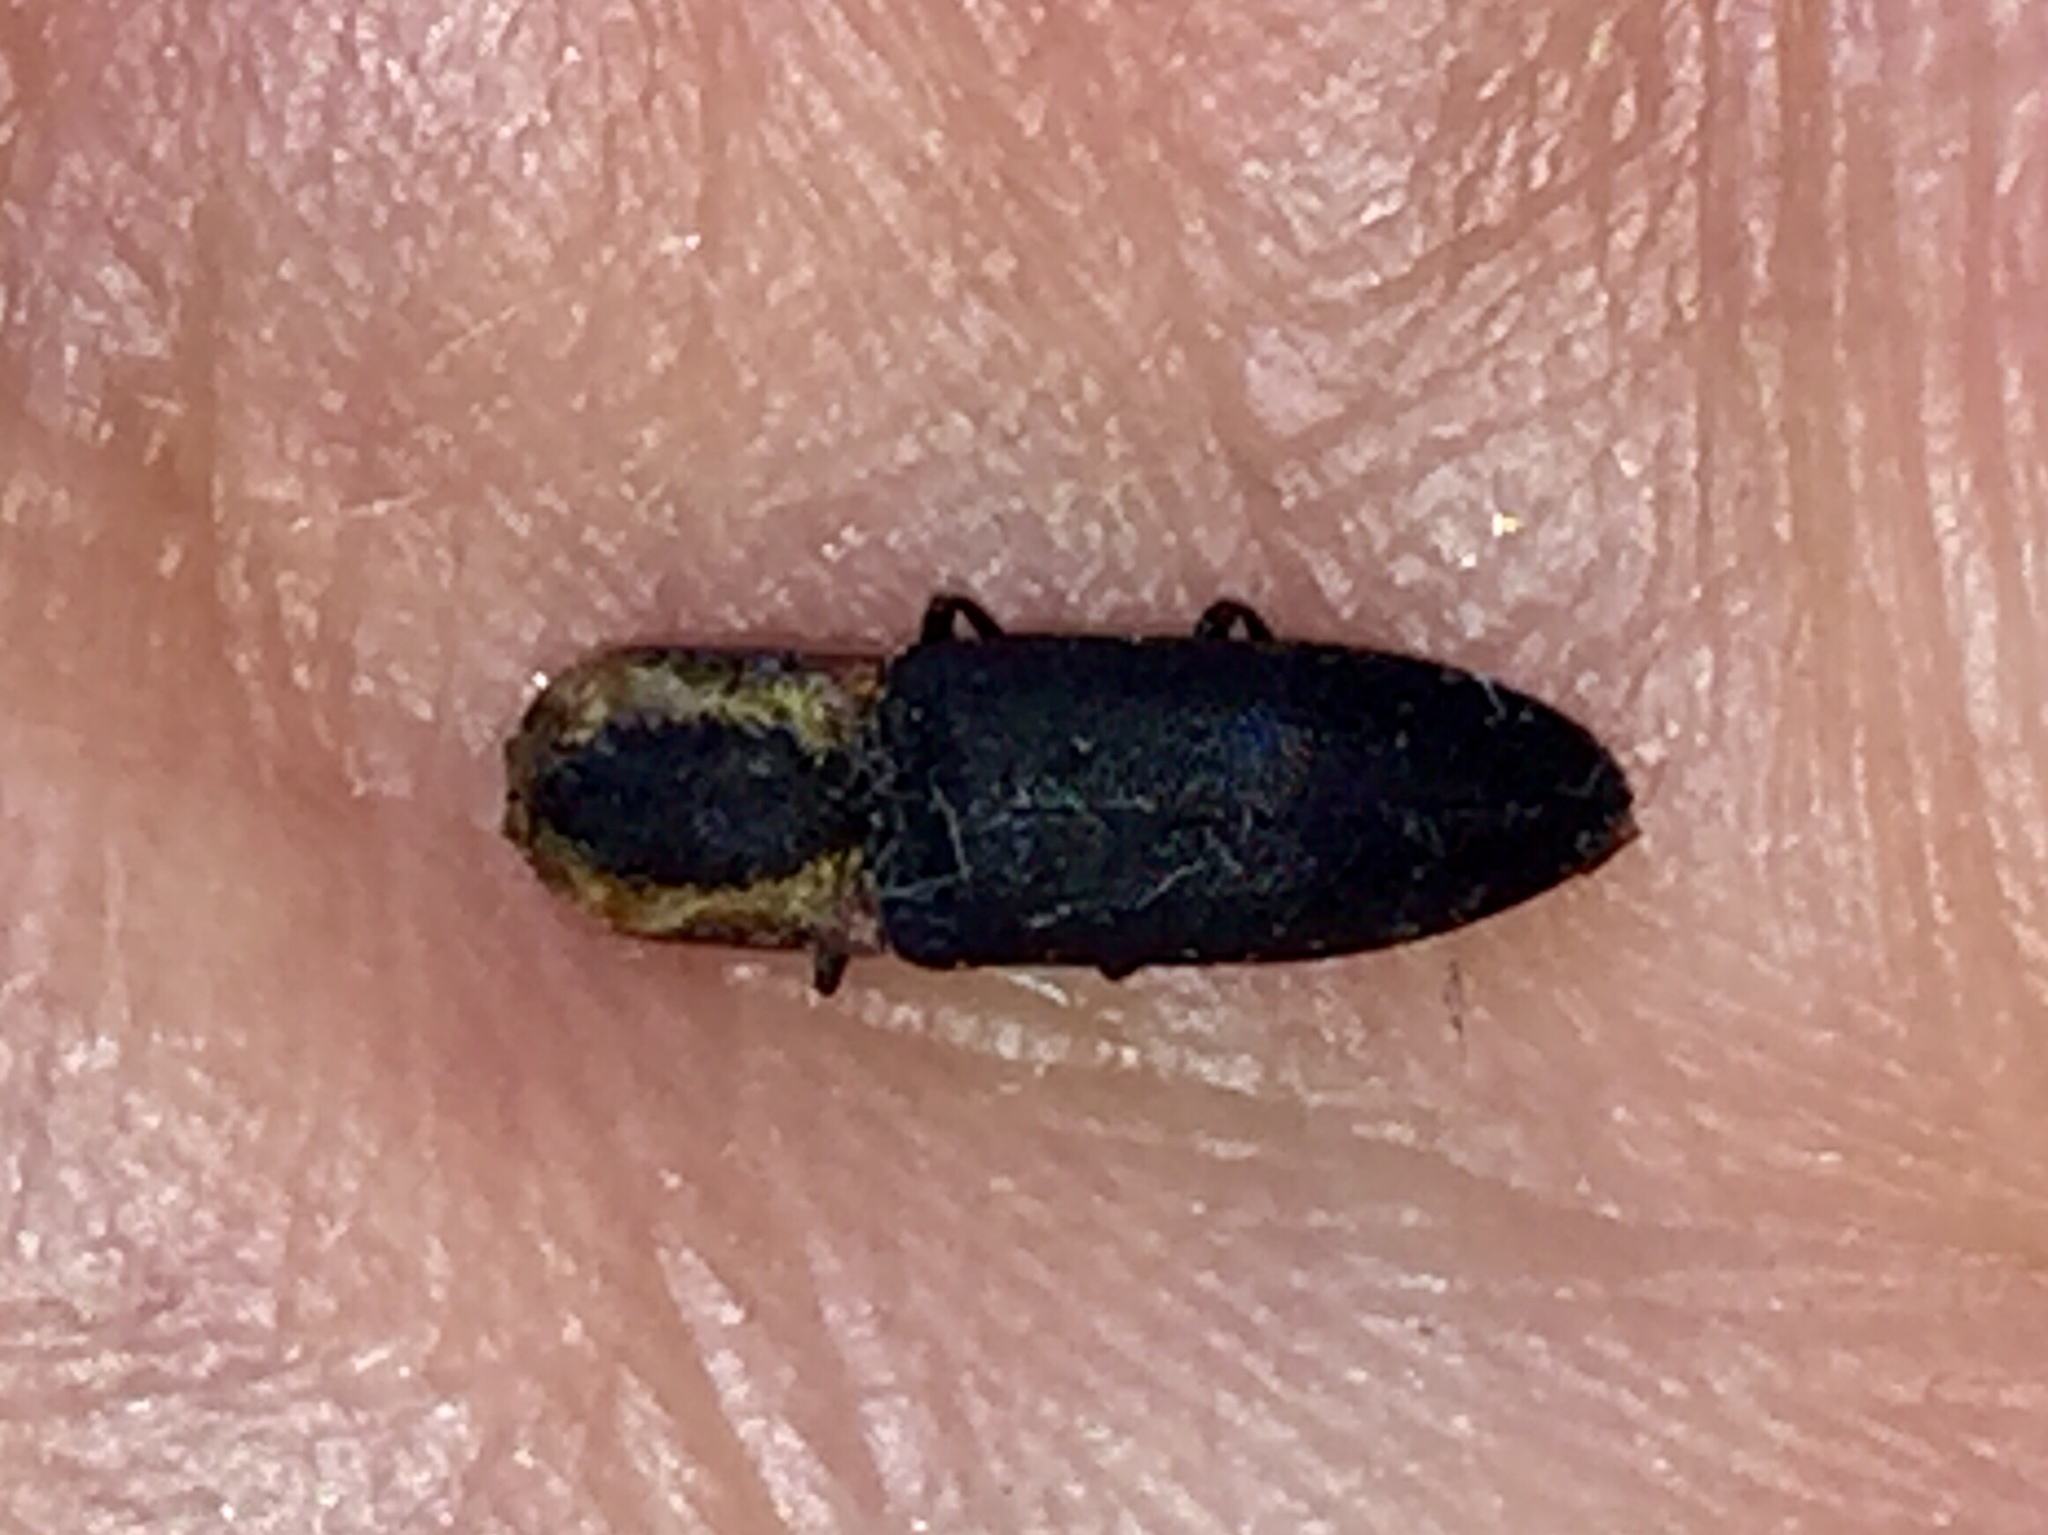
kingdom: Animalia
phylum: Arthropoda
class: Insecta
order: Coleoptera
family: Elateridae
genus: Lacon
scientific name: Lacon discoideus
